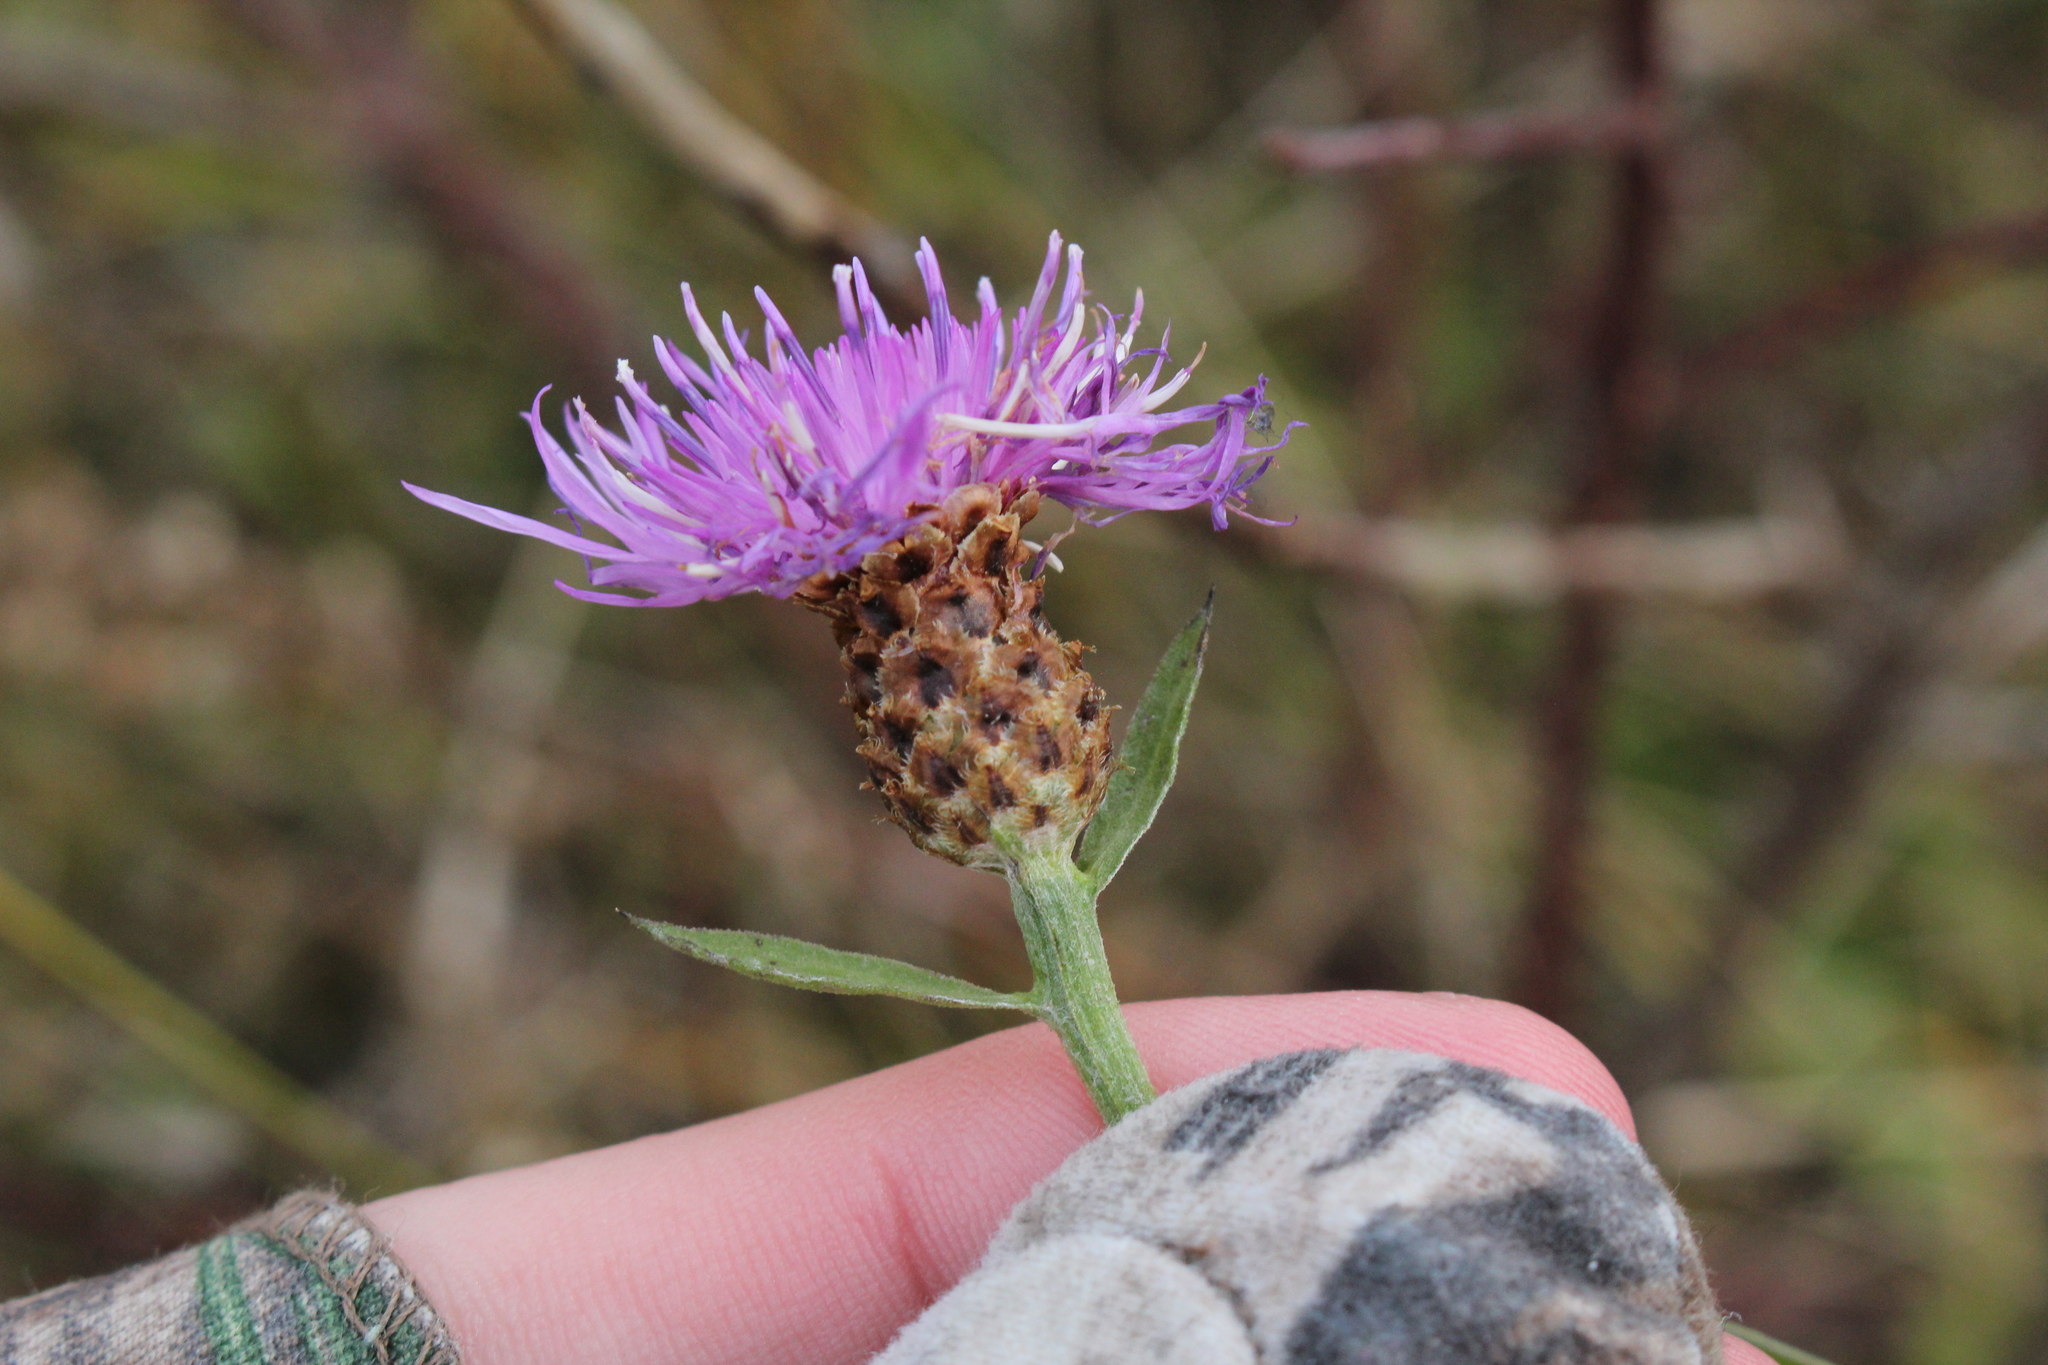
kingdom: Plantae
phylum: Tracheophyta
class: Magnoliopsida
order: Asterales
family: Asteraceae
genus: Centaurea
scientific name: Centaurea moncktonii
